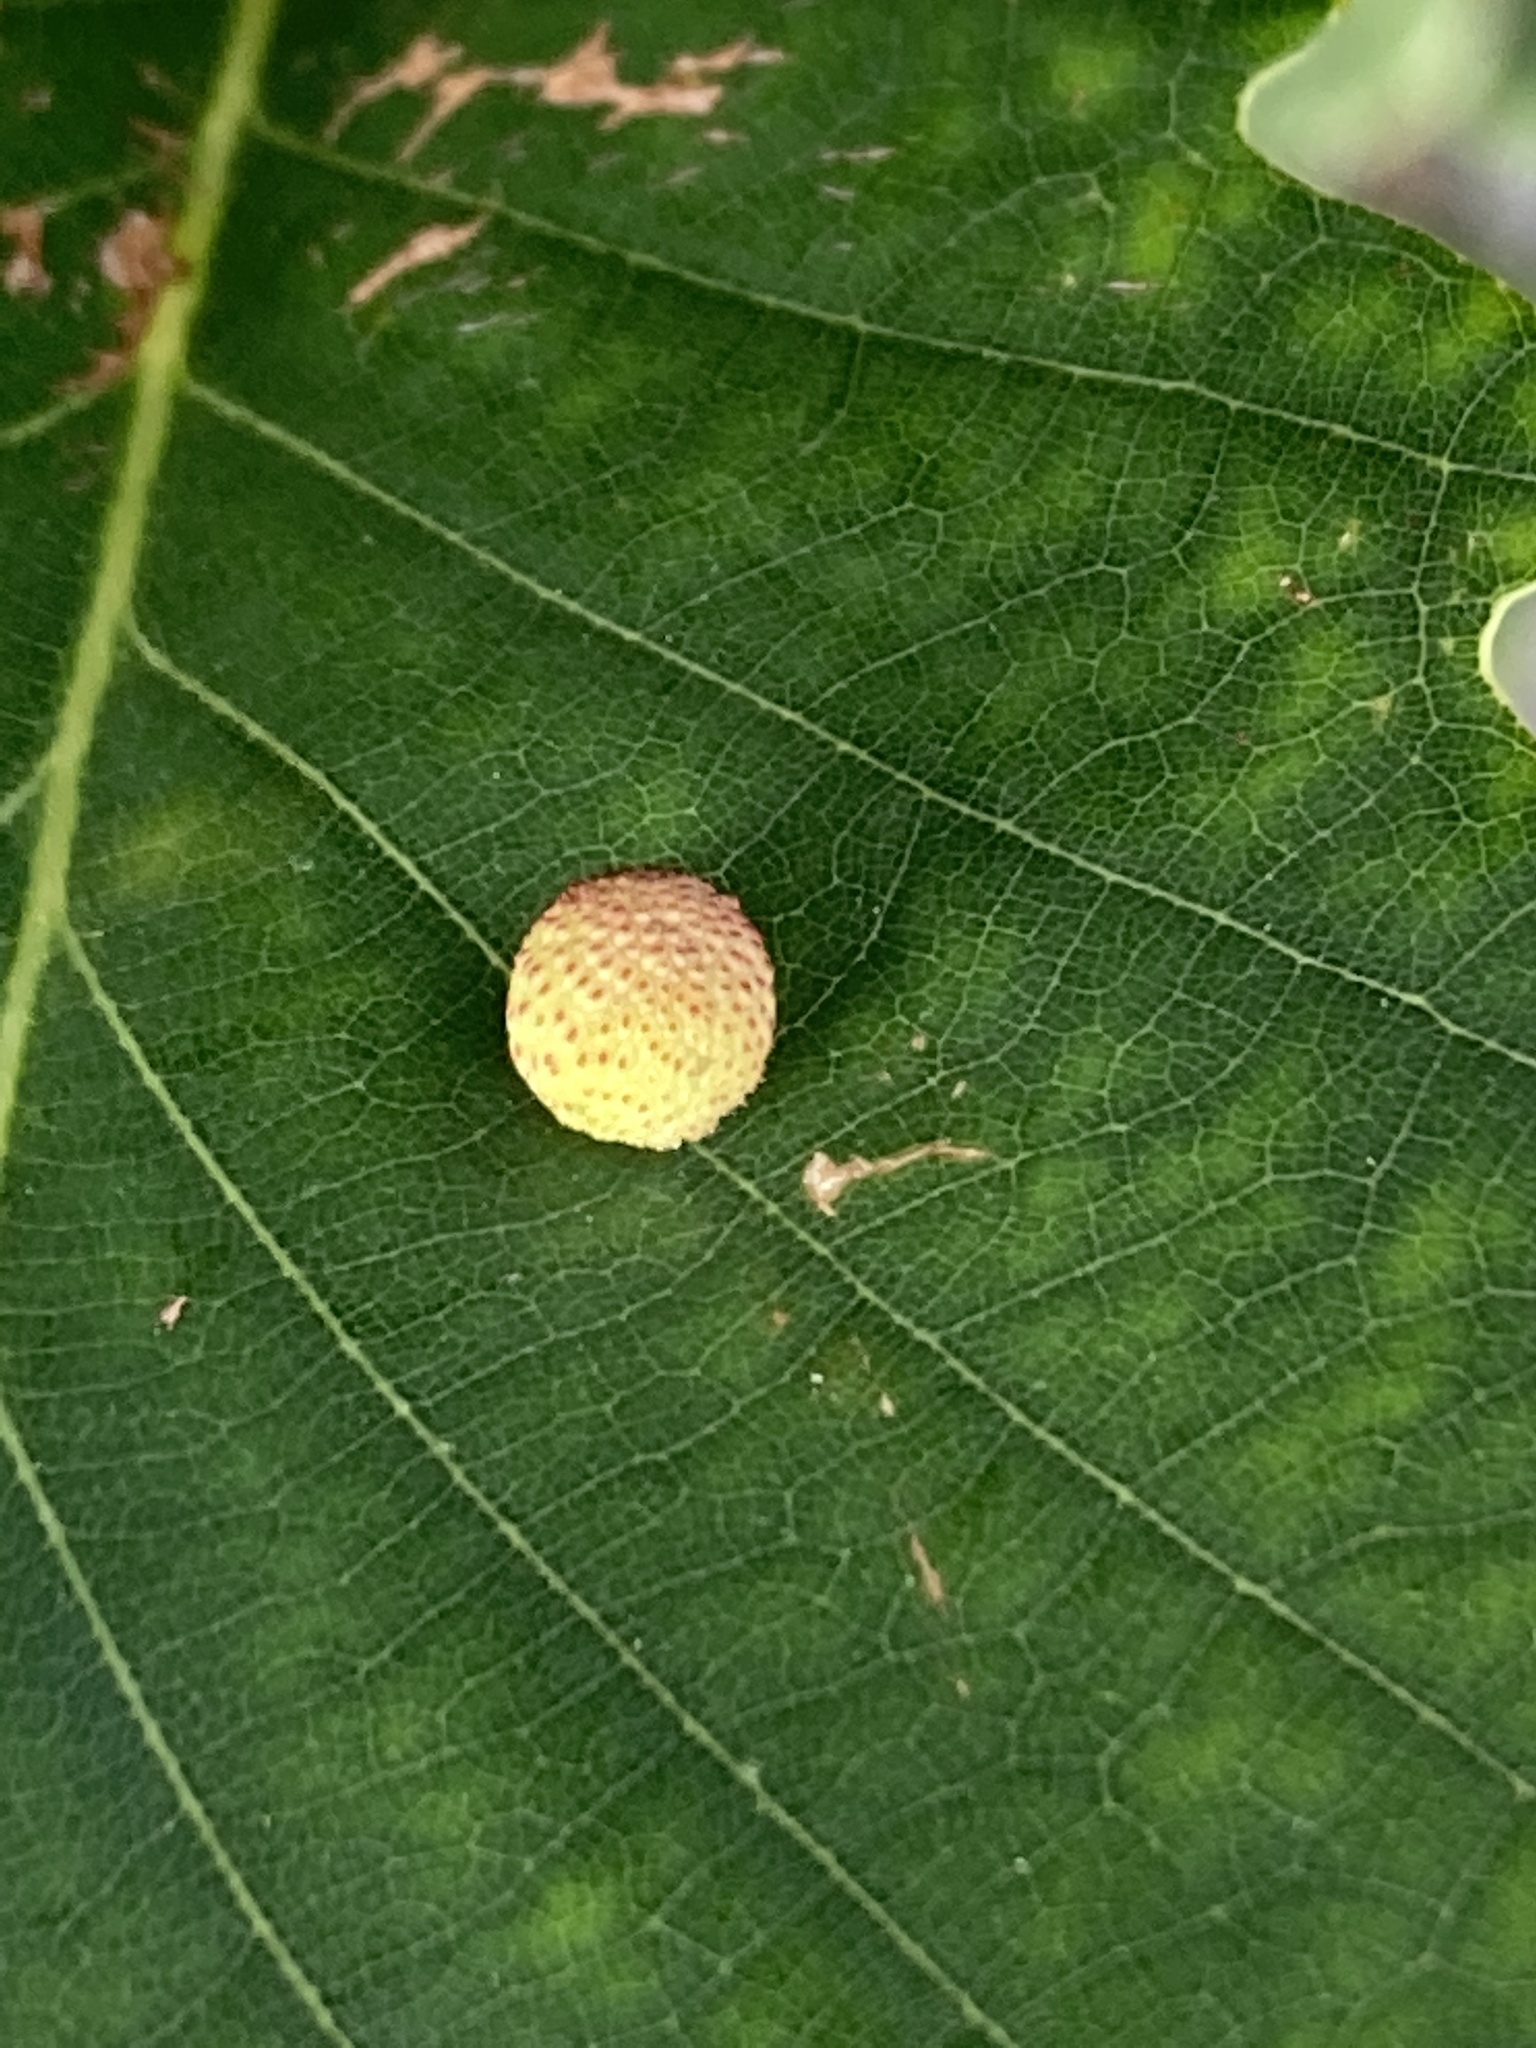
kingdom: Animalia
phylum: Arthropoda
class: Insecta
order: Hymenoptera
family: Cynipidae
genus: Acraspis
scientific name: Acraspis quercushirta
